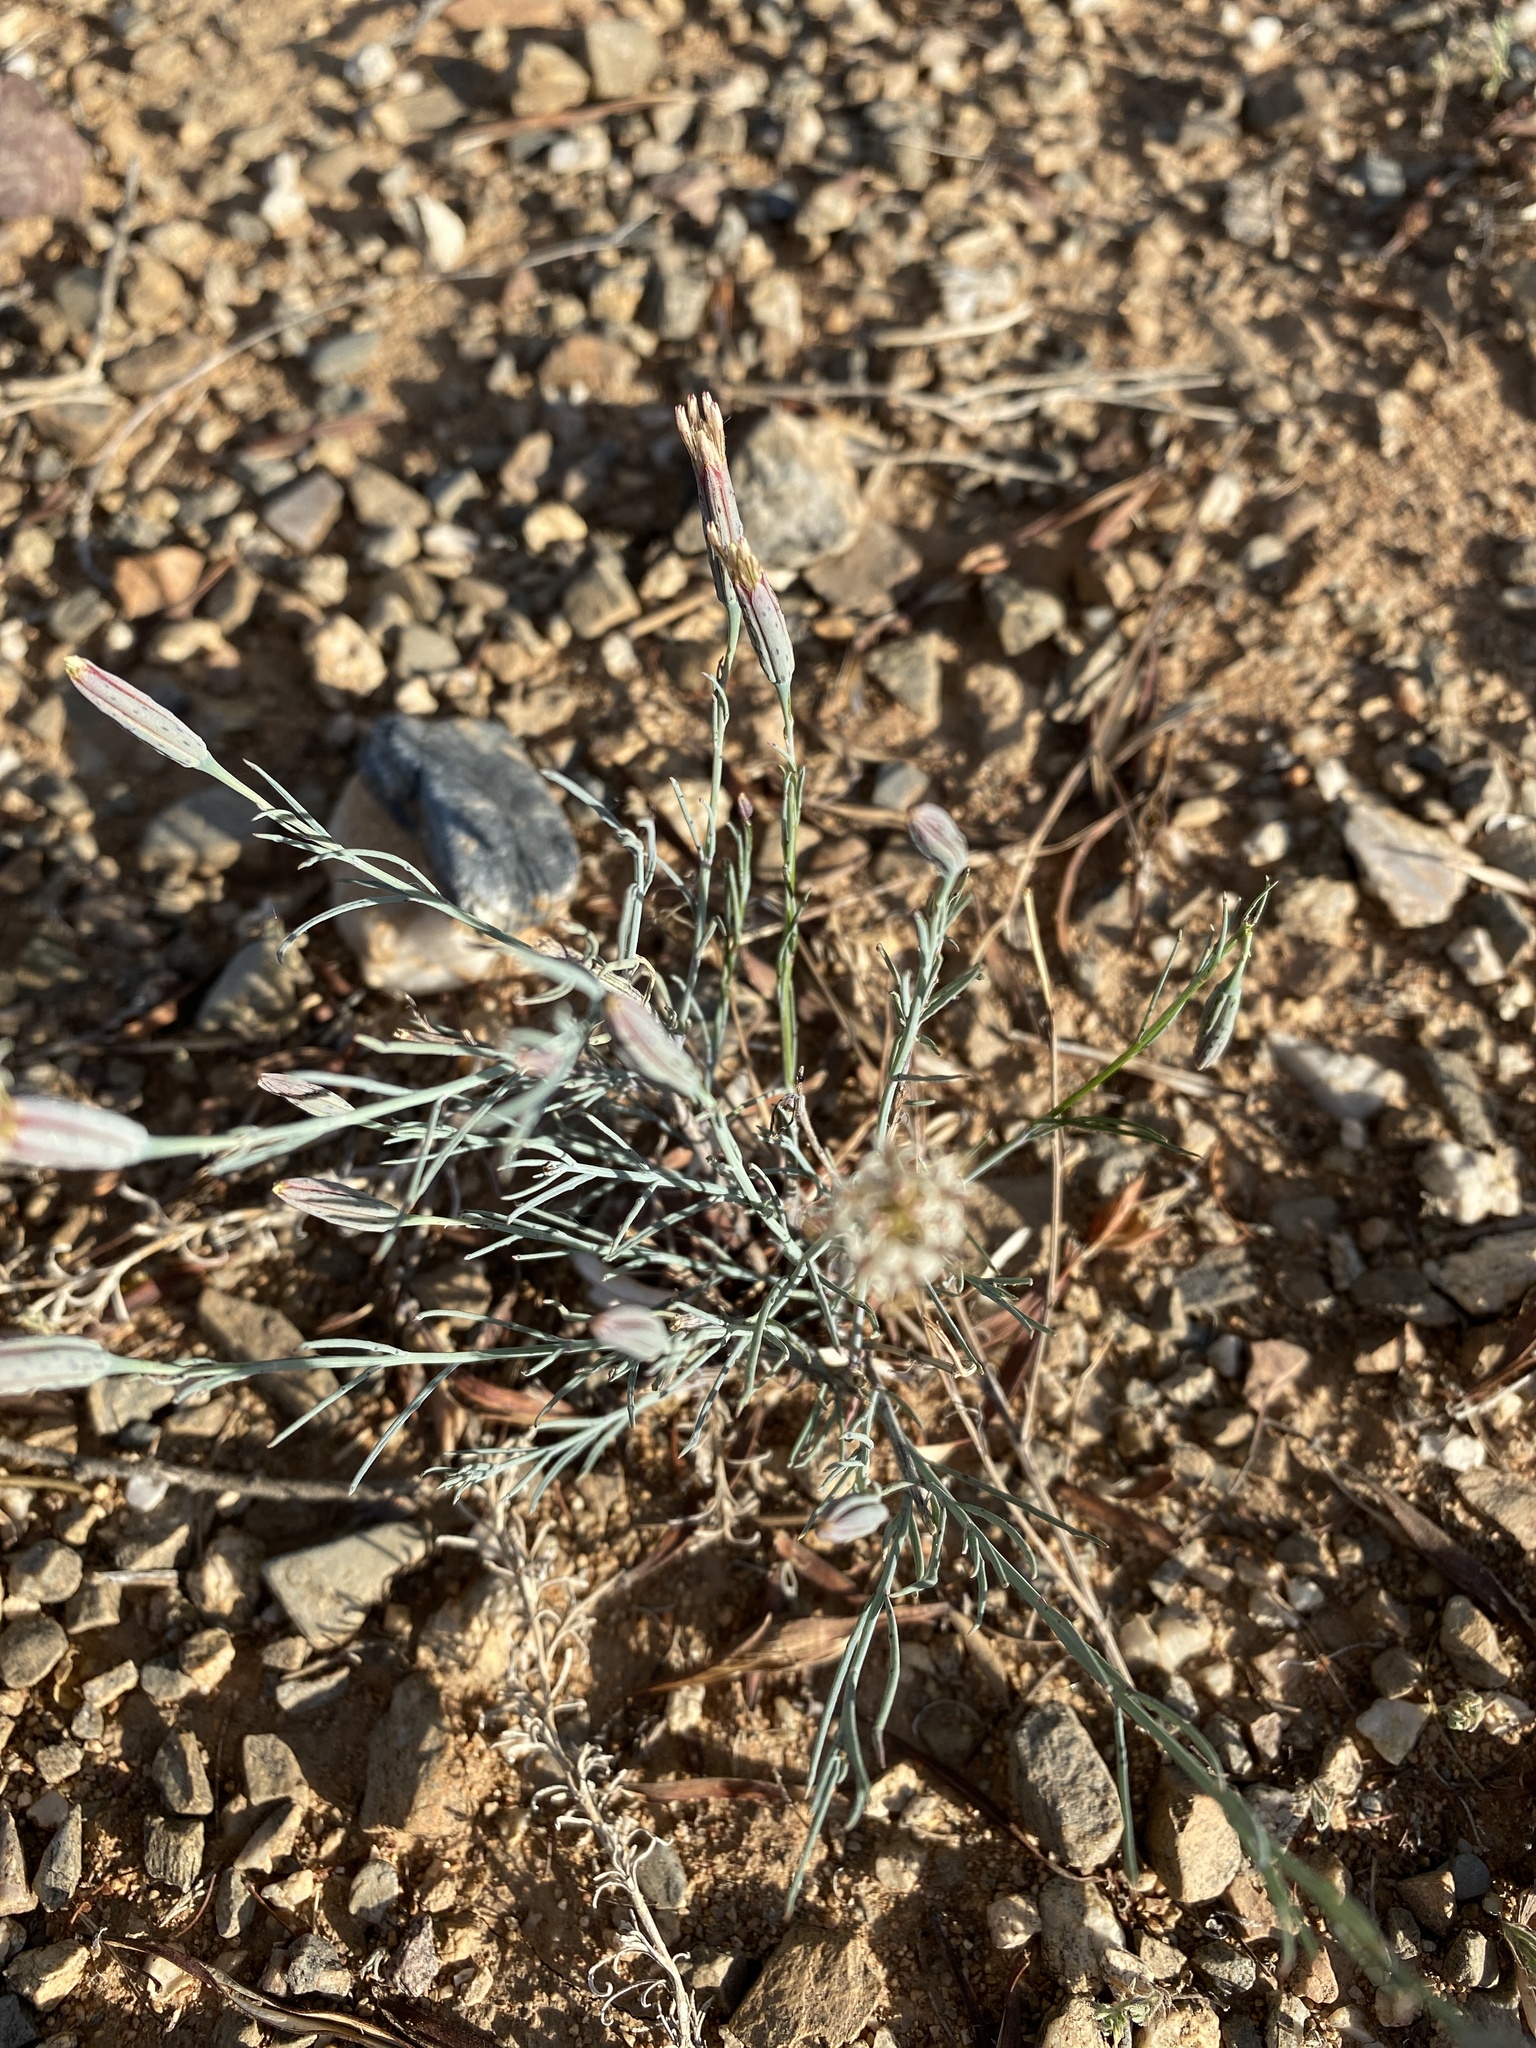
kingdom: Plantae
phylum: Tracheophyta
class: Magnoliopsida
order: Asterales
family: Asteraceae
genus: Porophyllum
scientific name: Porophyllum gracile
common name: Odora
